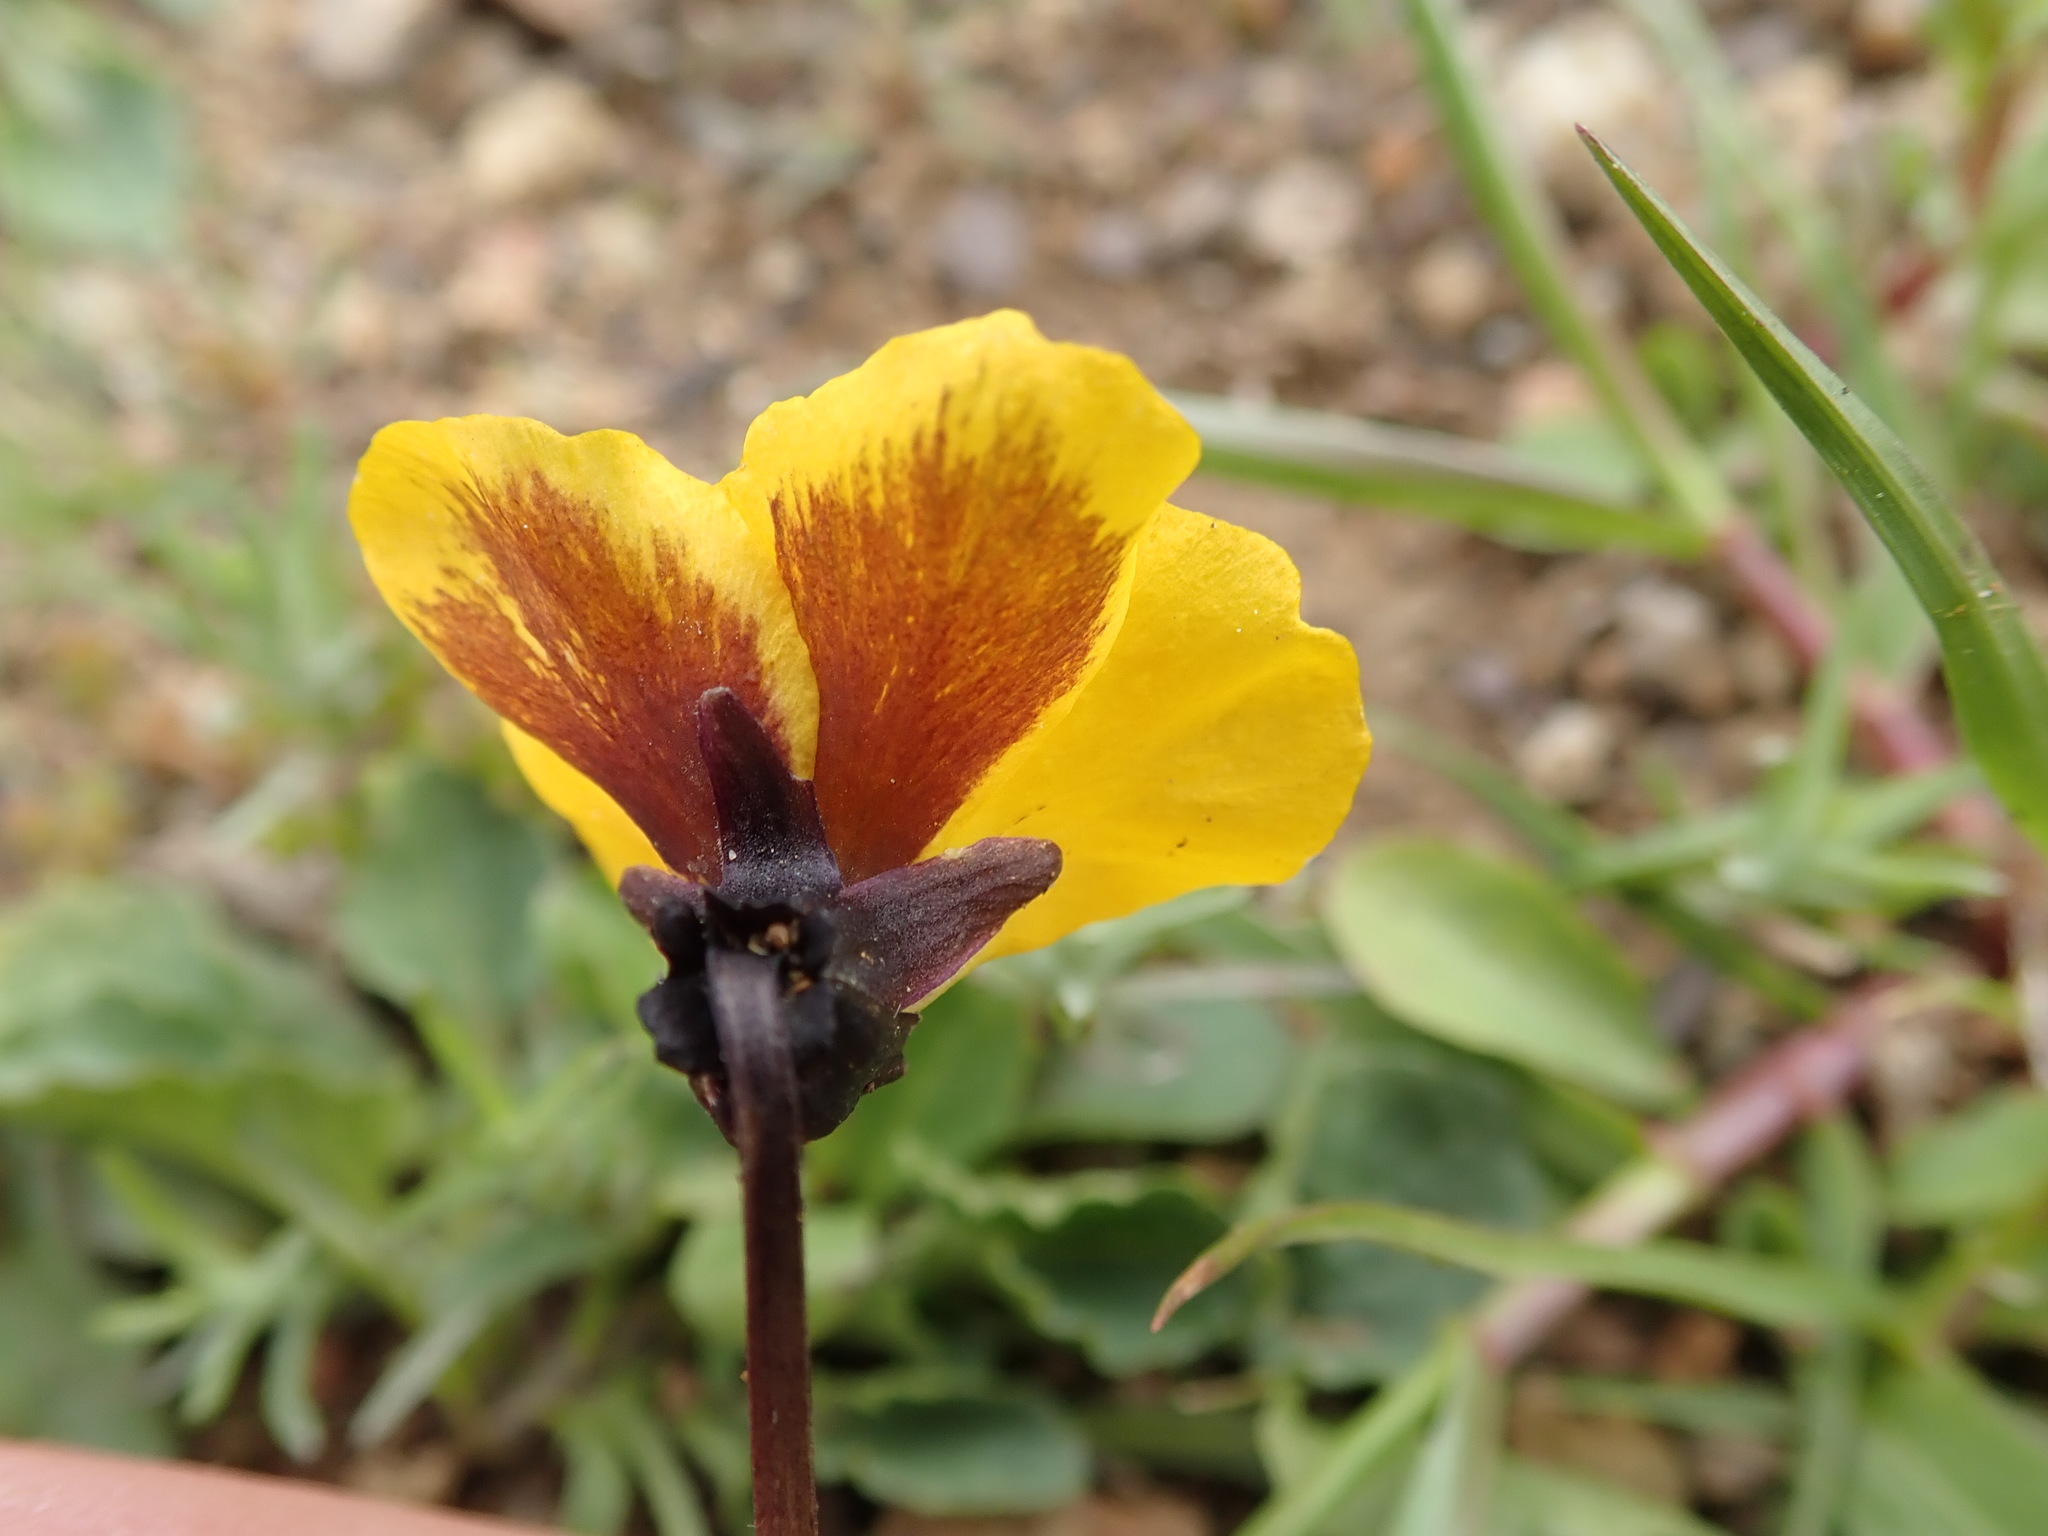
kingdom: Plantae
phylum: Tracheophyta
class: Magnoliopsida
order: Malpighiales
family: Violaceae
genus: Viola
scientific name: Viola pedunculata
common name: California golden violet
